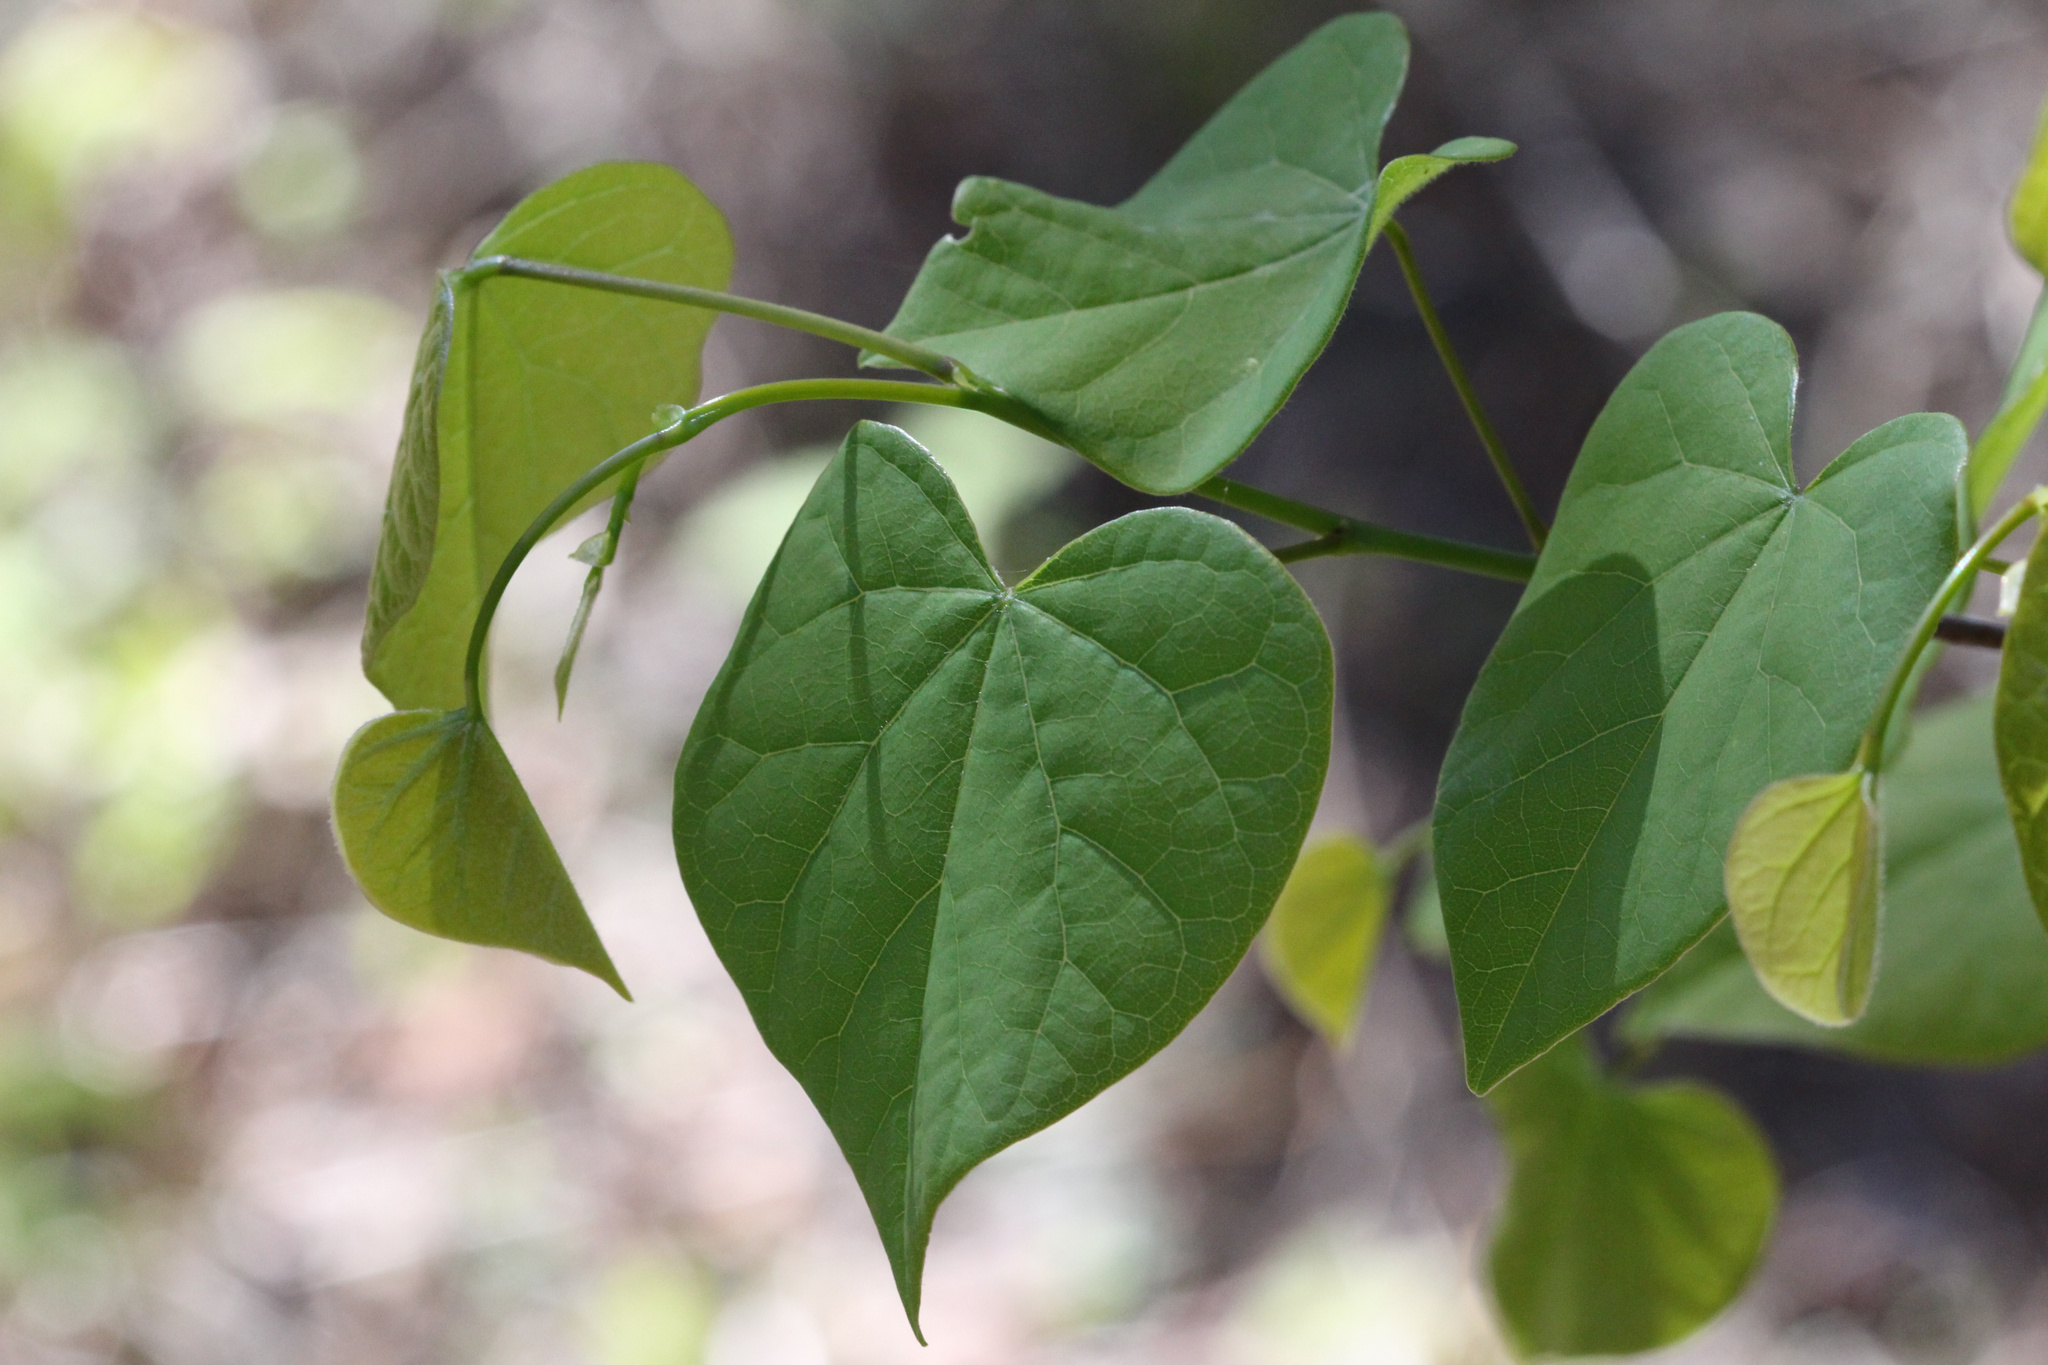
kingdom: Plantae
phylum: Tracheophyta
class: Magnoliopsida
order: Fabales
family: Fabaceae
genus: Cercis
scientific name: Cercis canadensis
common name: Eastern redbud
